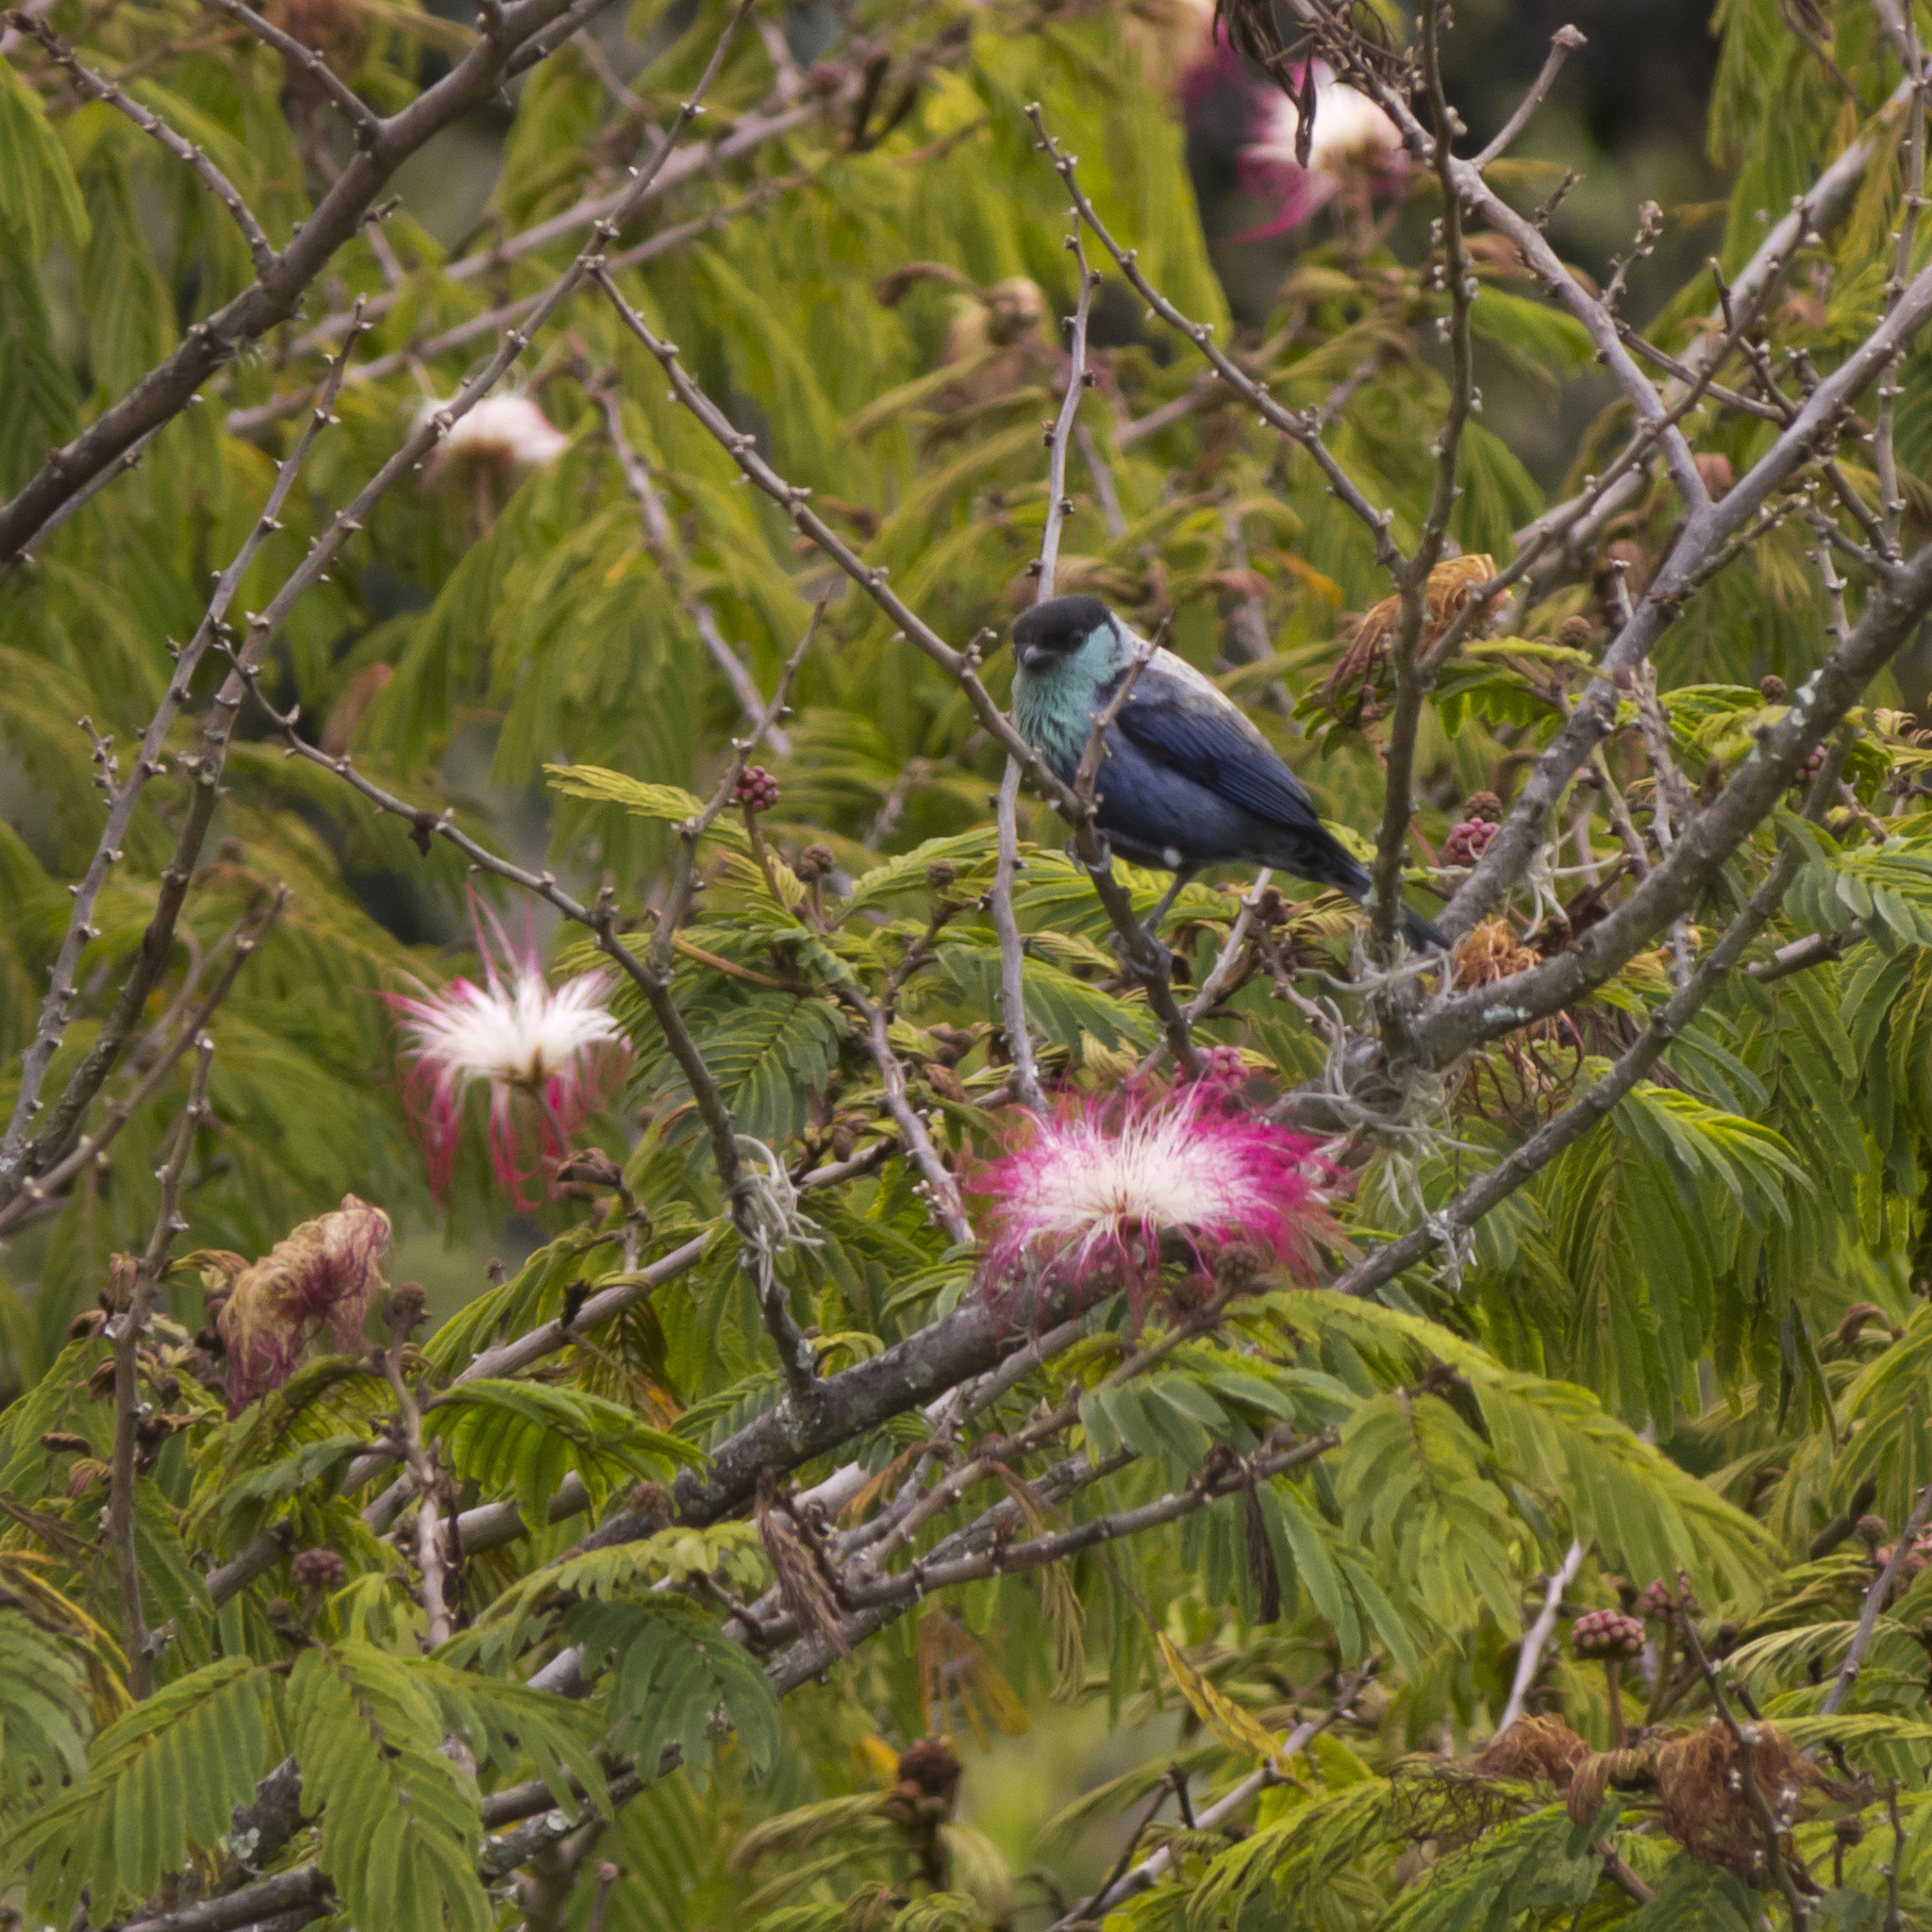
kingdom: Animalia
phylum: Chordata
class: Aves
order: Passeriformes
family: Thraupidae
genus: Stilpnia
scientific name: Stilpnia heinei
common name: Black-capped tanager
